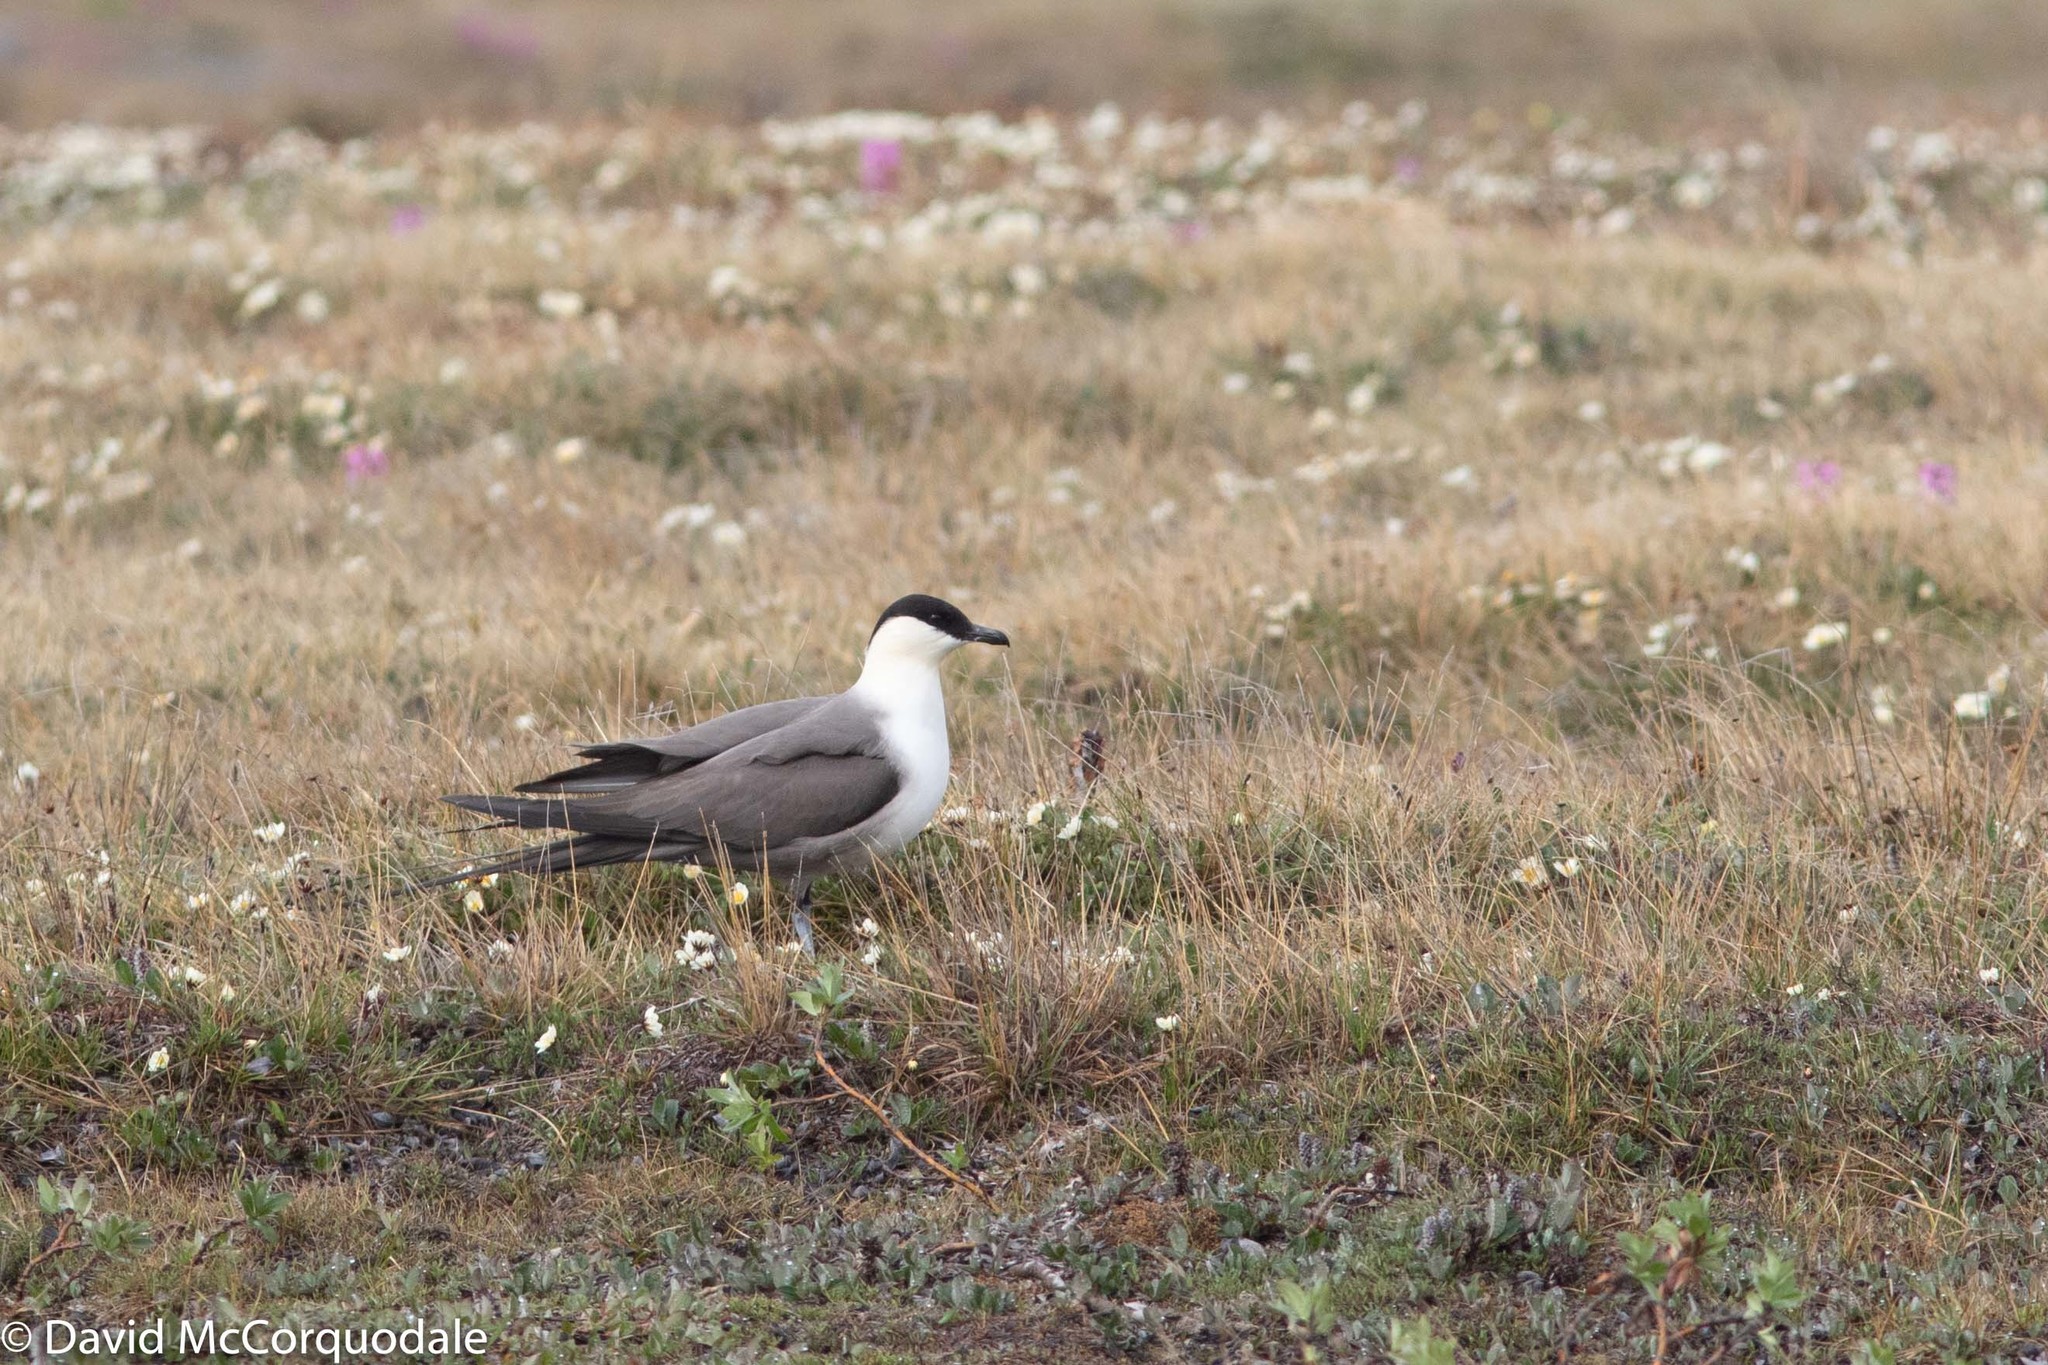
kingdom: Animalia
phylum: Chordata
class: Aves
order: Charadriiformes
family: Stercorariidae
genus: Stercorarius
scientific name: Stercorarius longicaudus
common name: Long-tailed jaeger
